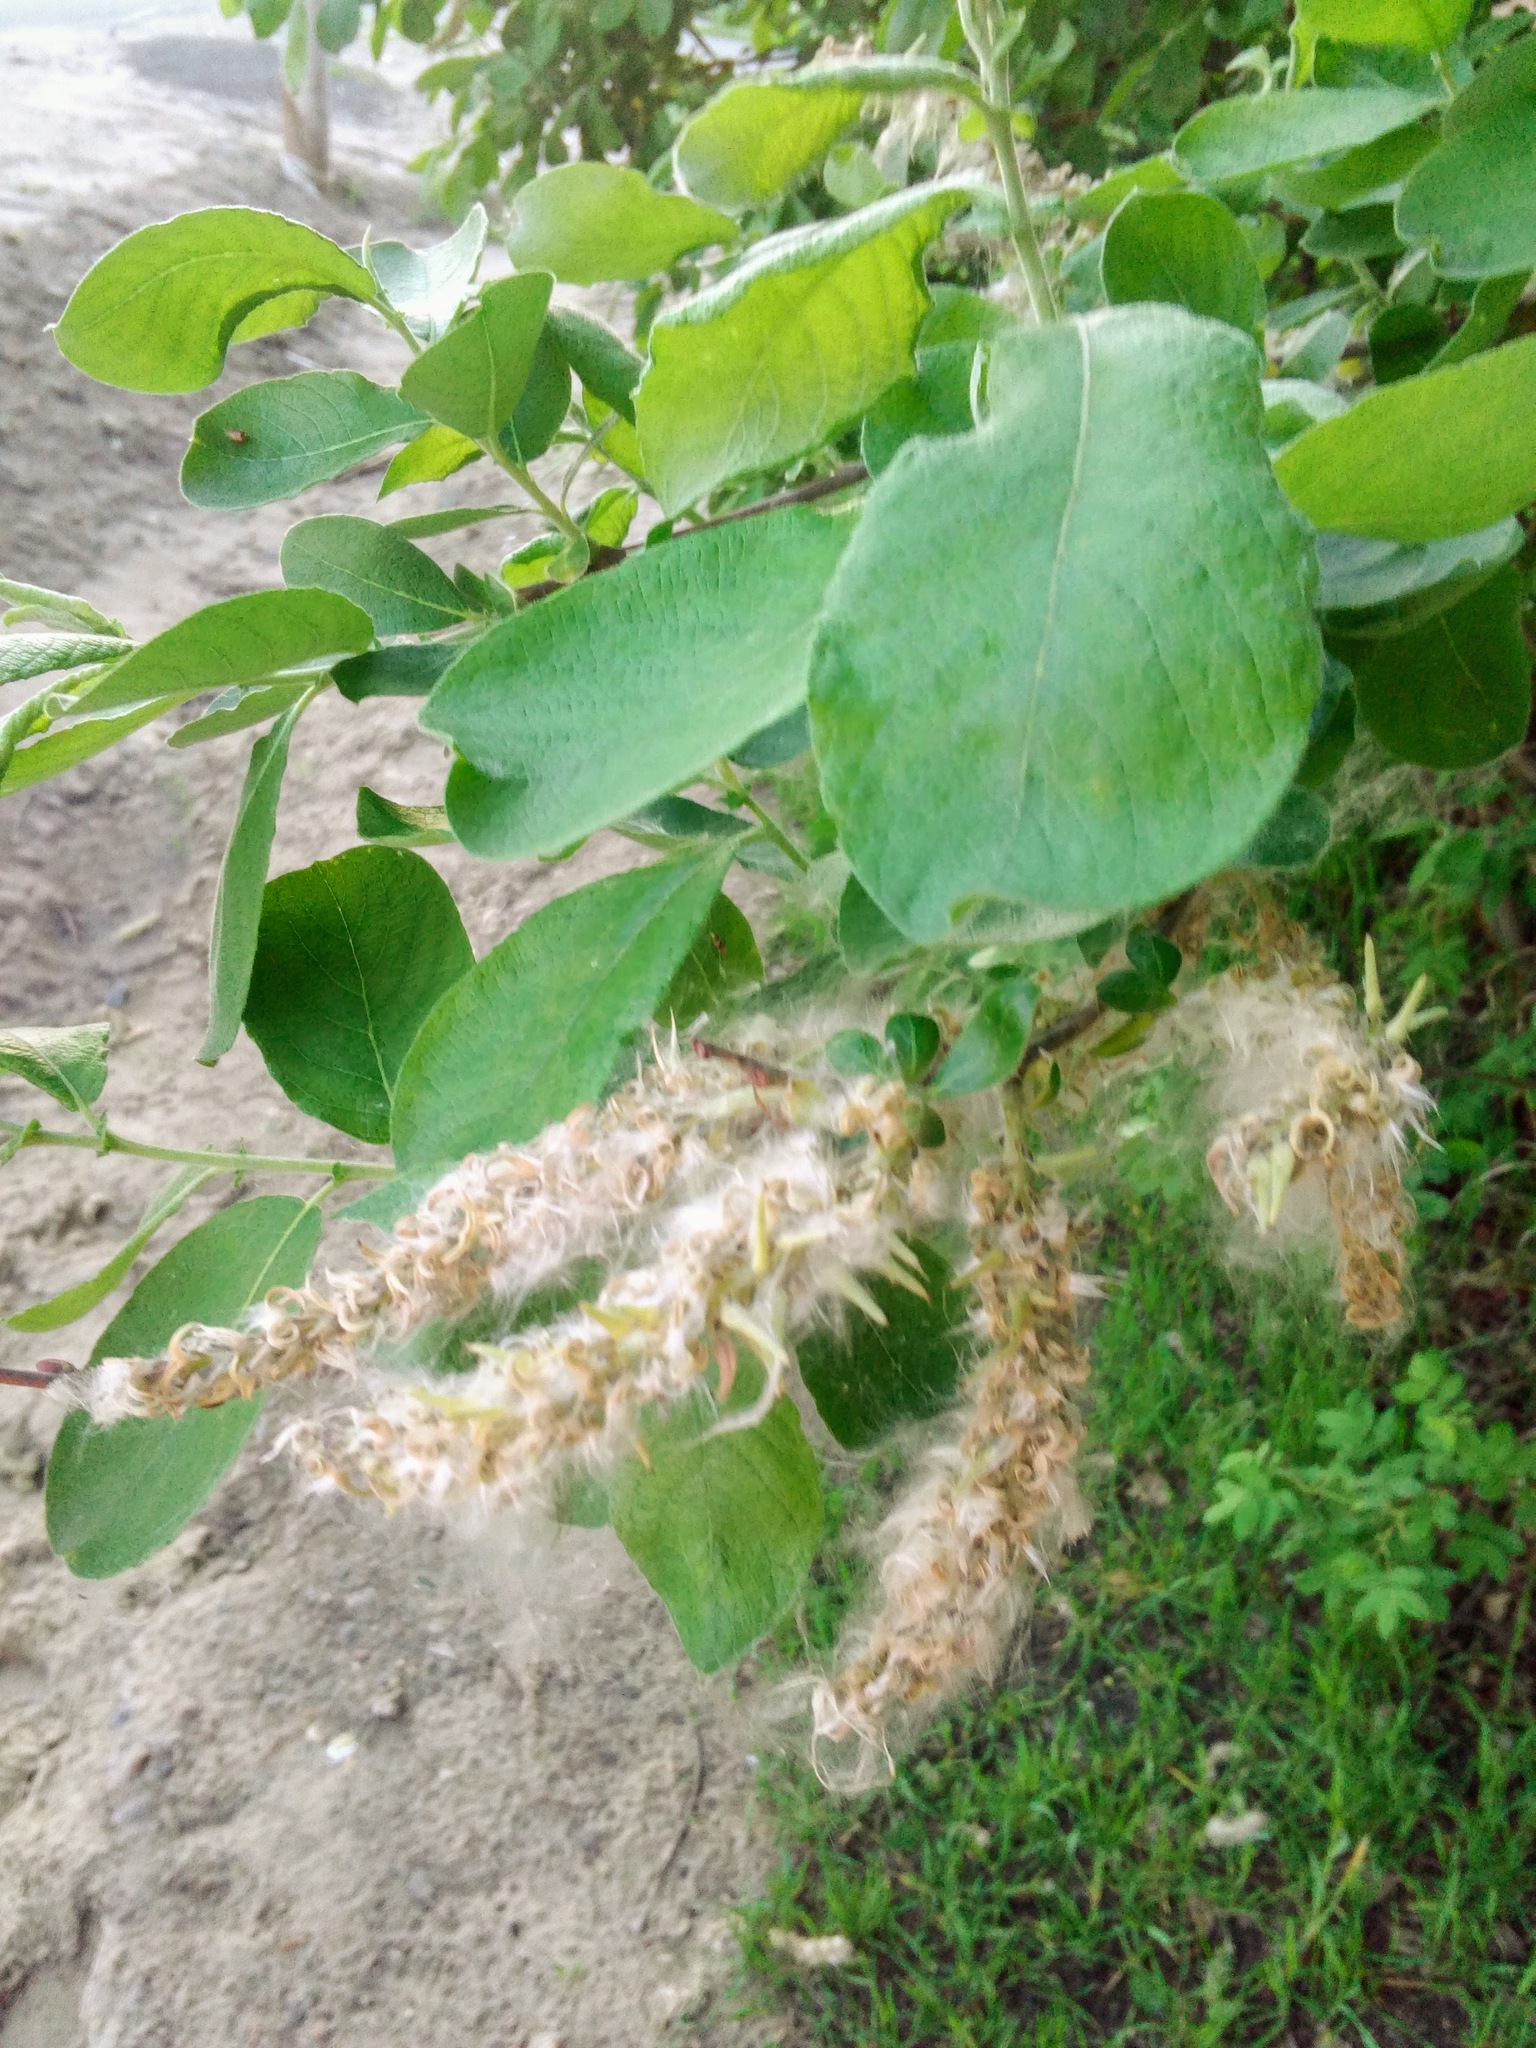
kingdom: Plantae
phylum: Tracheophyta
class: Magnoliopsida
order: Malpighiales
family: Salicaceae
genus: Salix
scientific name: Salix cinerea
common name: Common sallow
